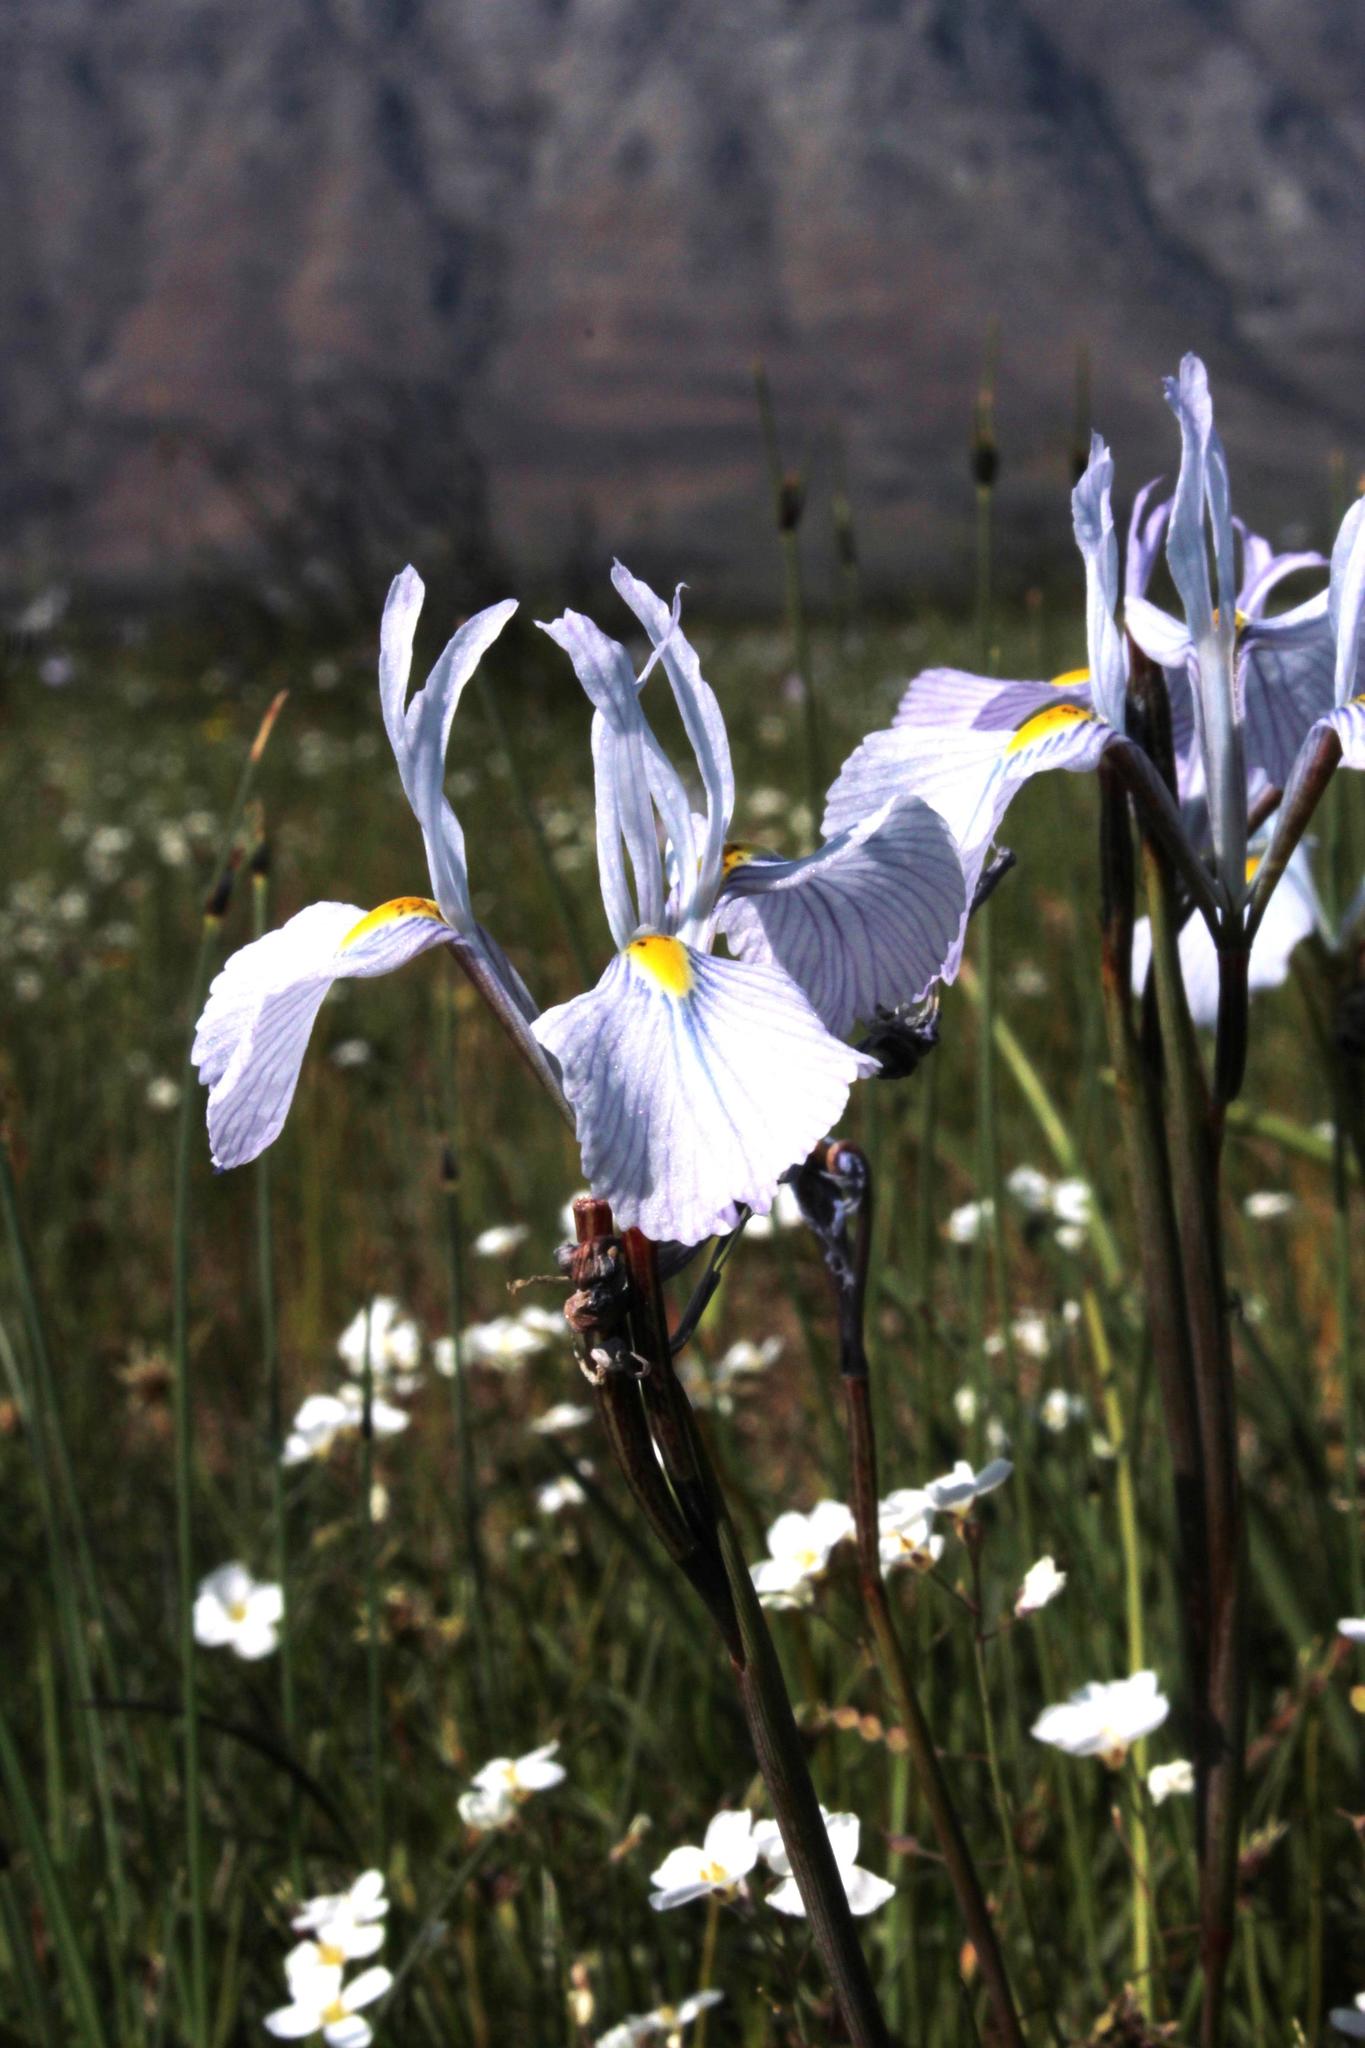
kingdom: Plantae
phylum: Tracheophyta
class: Liliopsida
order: Asparagales
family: Iridaceae
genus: Moraea
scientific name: Moraea tripetala
